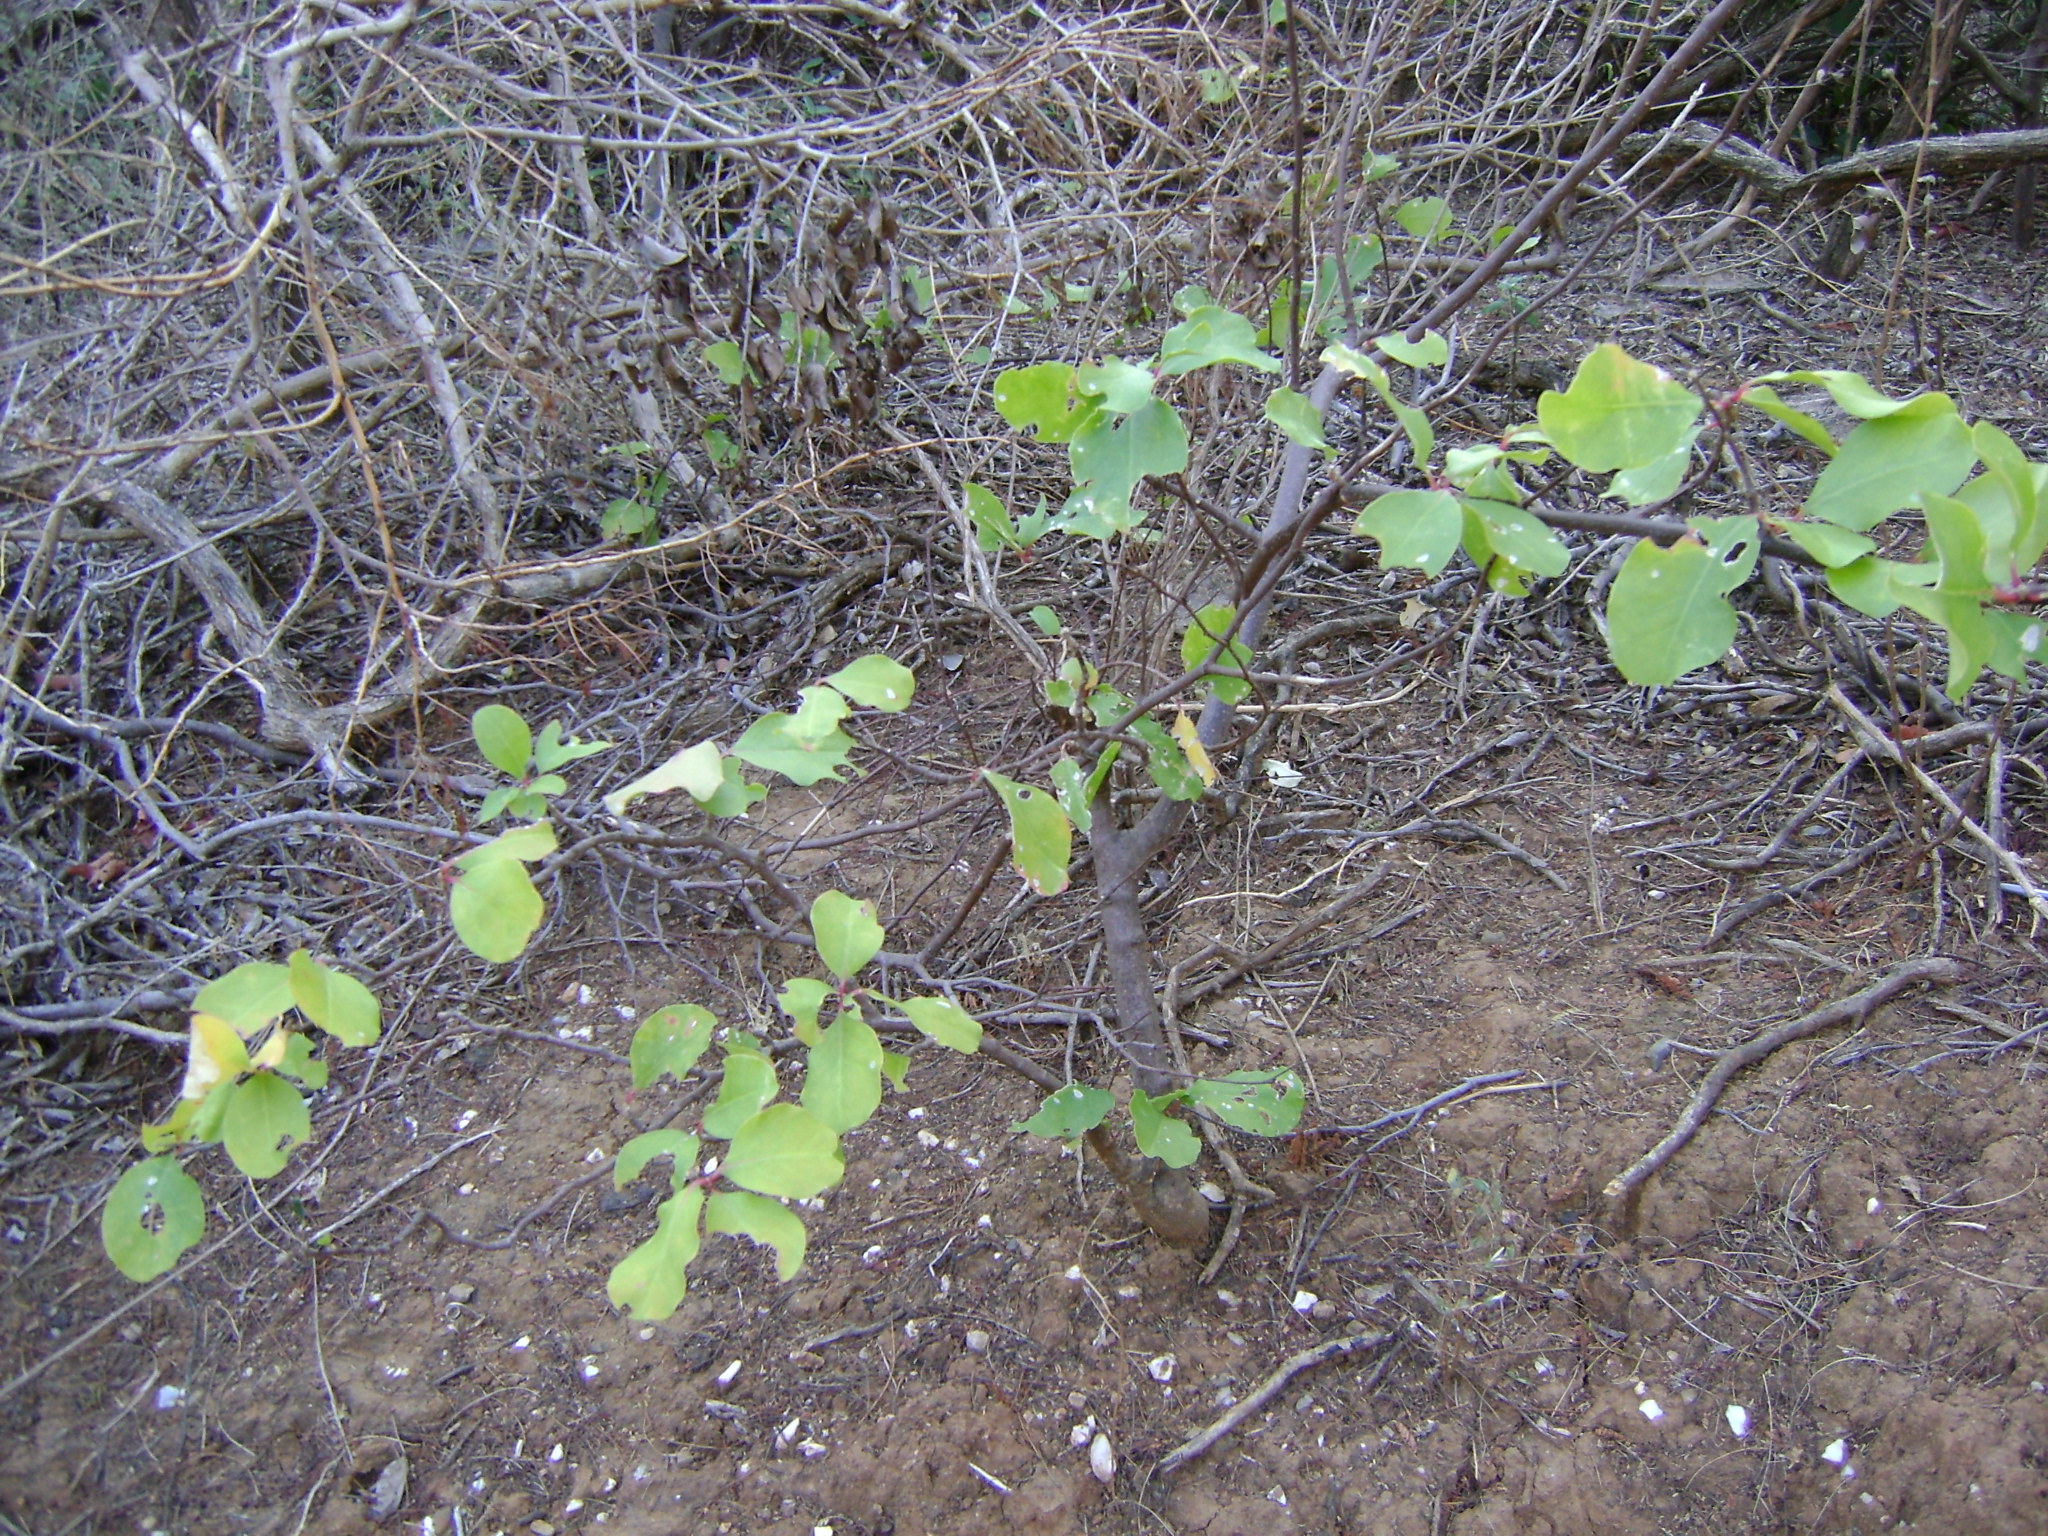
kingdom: Plantae
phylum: Tracheophyta
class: Magnoliopsida
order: Caryophyllales
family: Nyctaginaceae
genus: Pisonia
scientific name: Pisonia aculeata
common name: Cockspur vine
